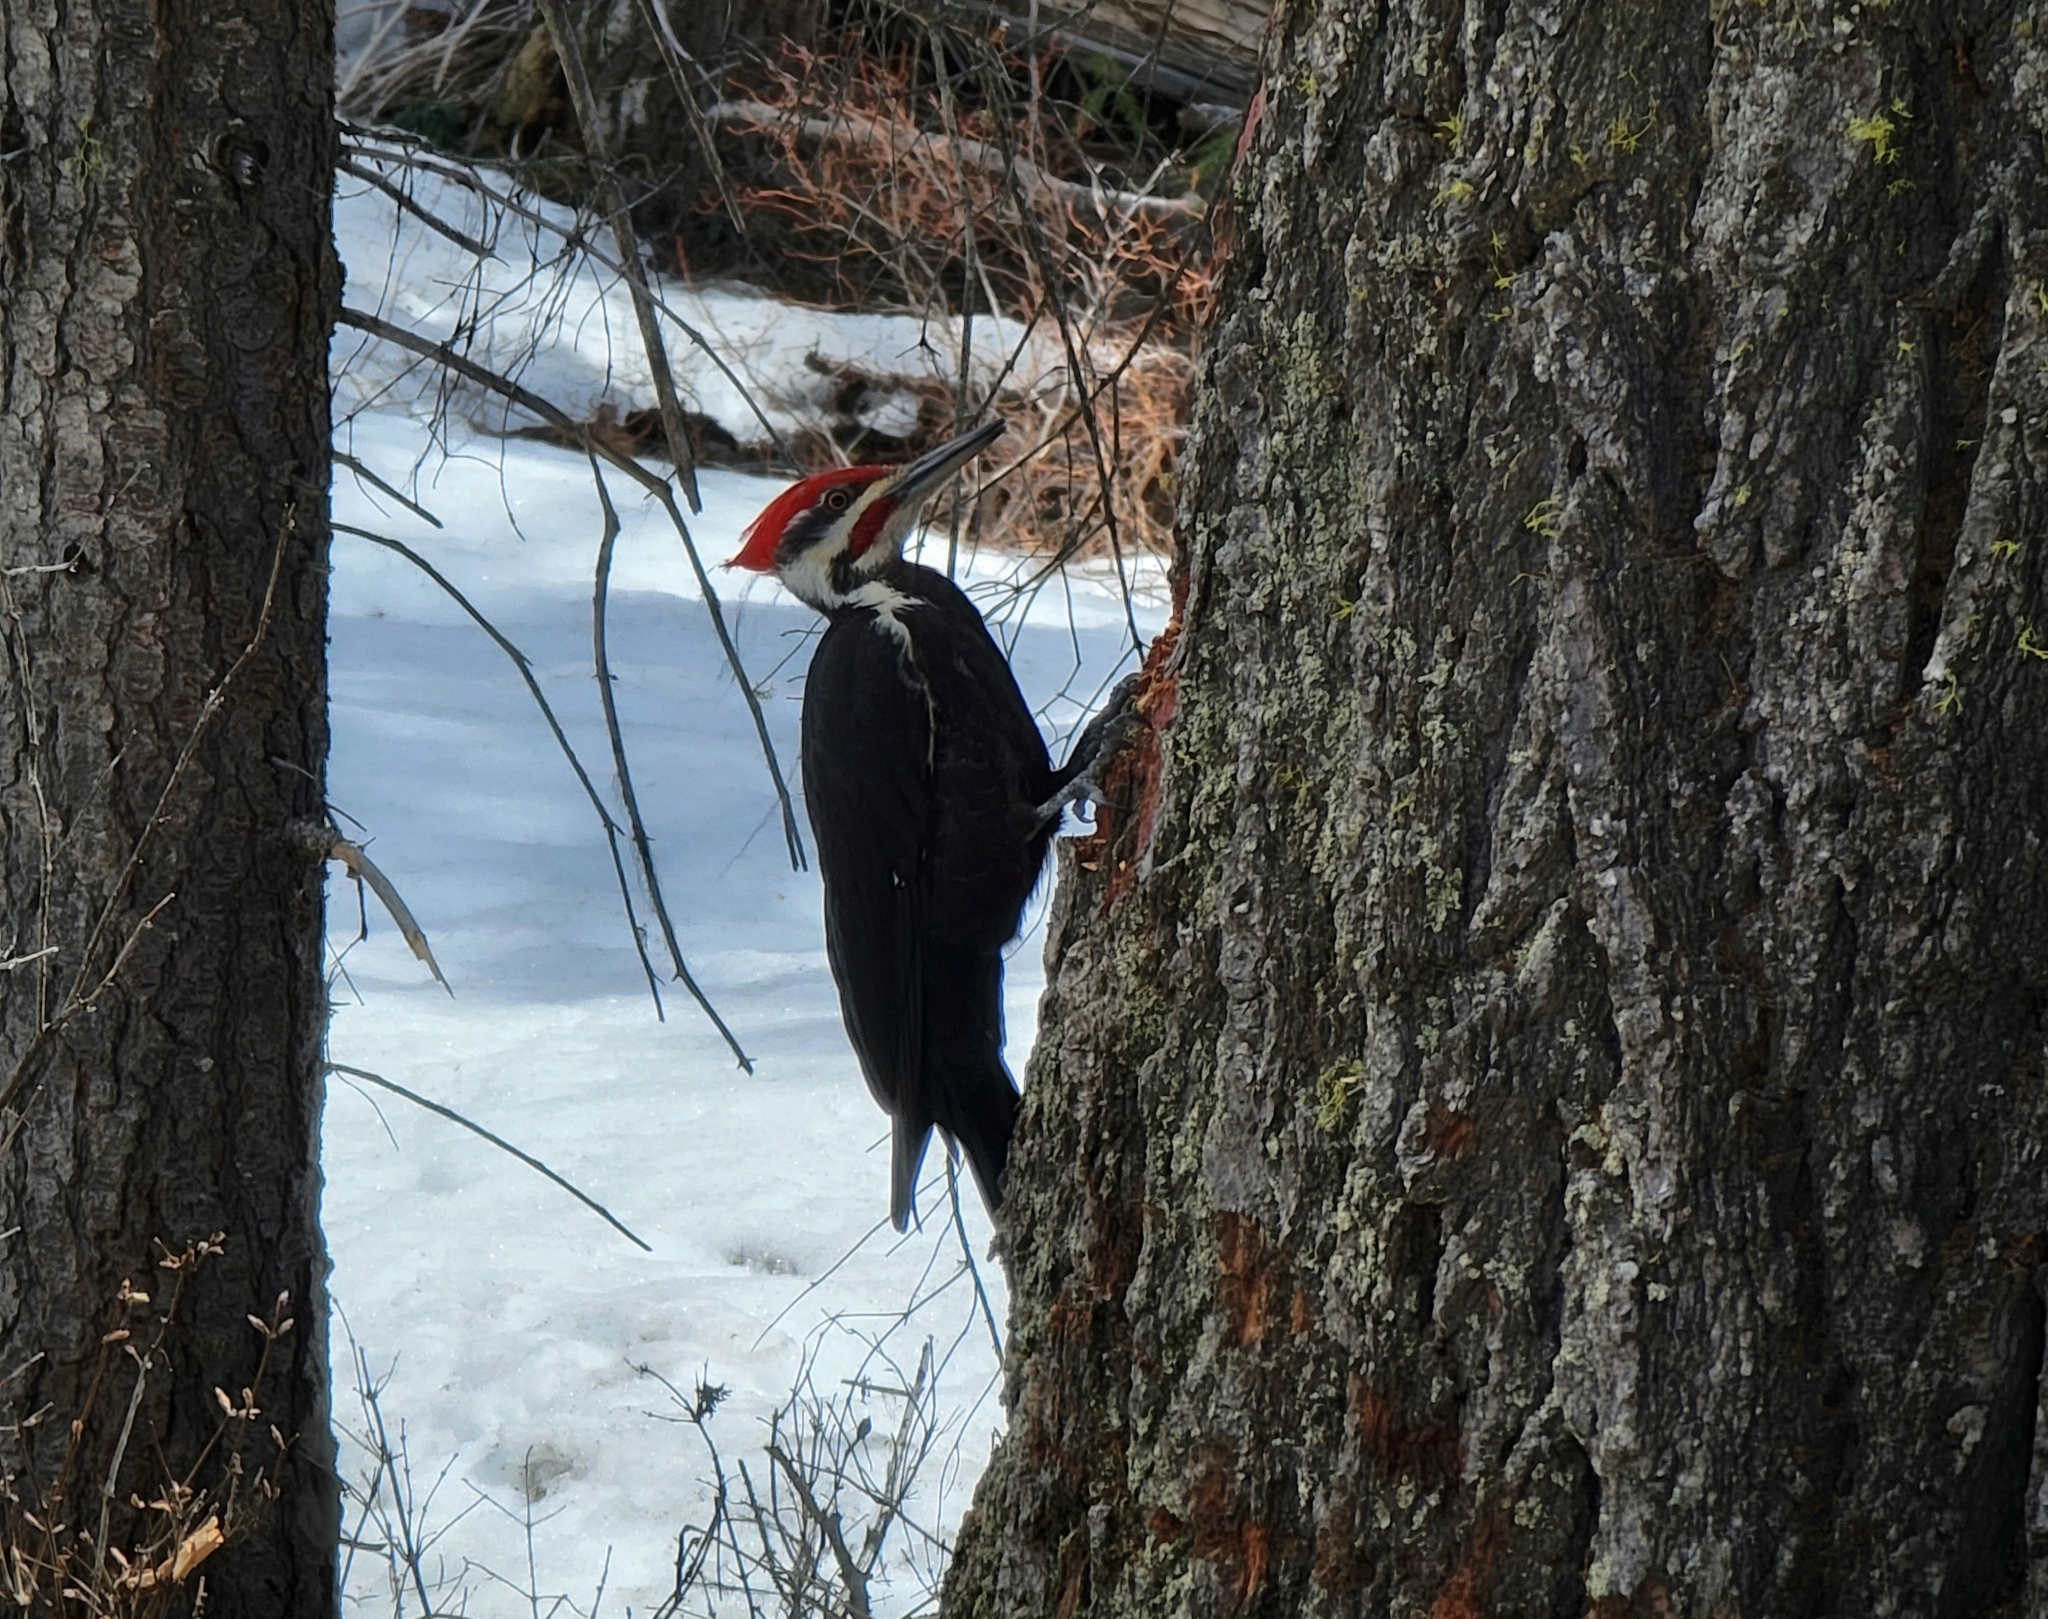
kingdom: Animalia
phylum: Chordata
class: Aves
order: Piciformes
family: Picidae
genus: Dryocopus
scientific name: Dryocopus pileatus
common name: Pileated woodpecker
